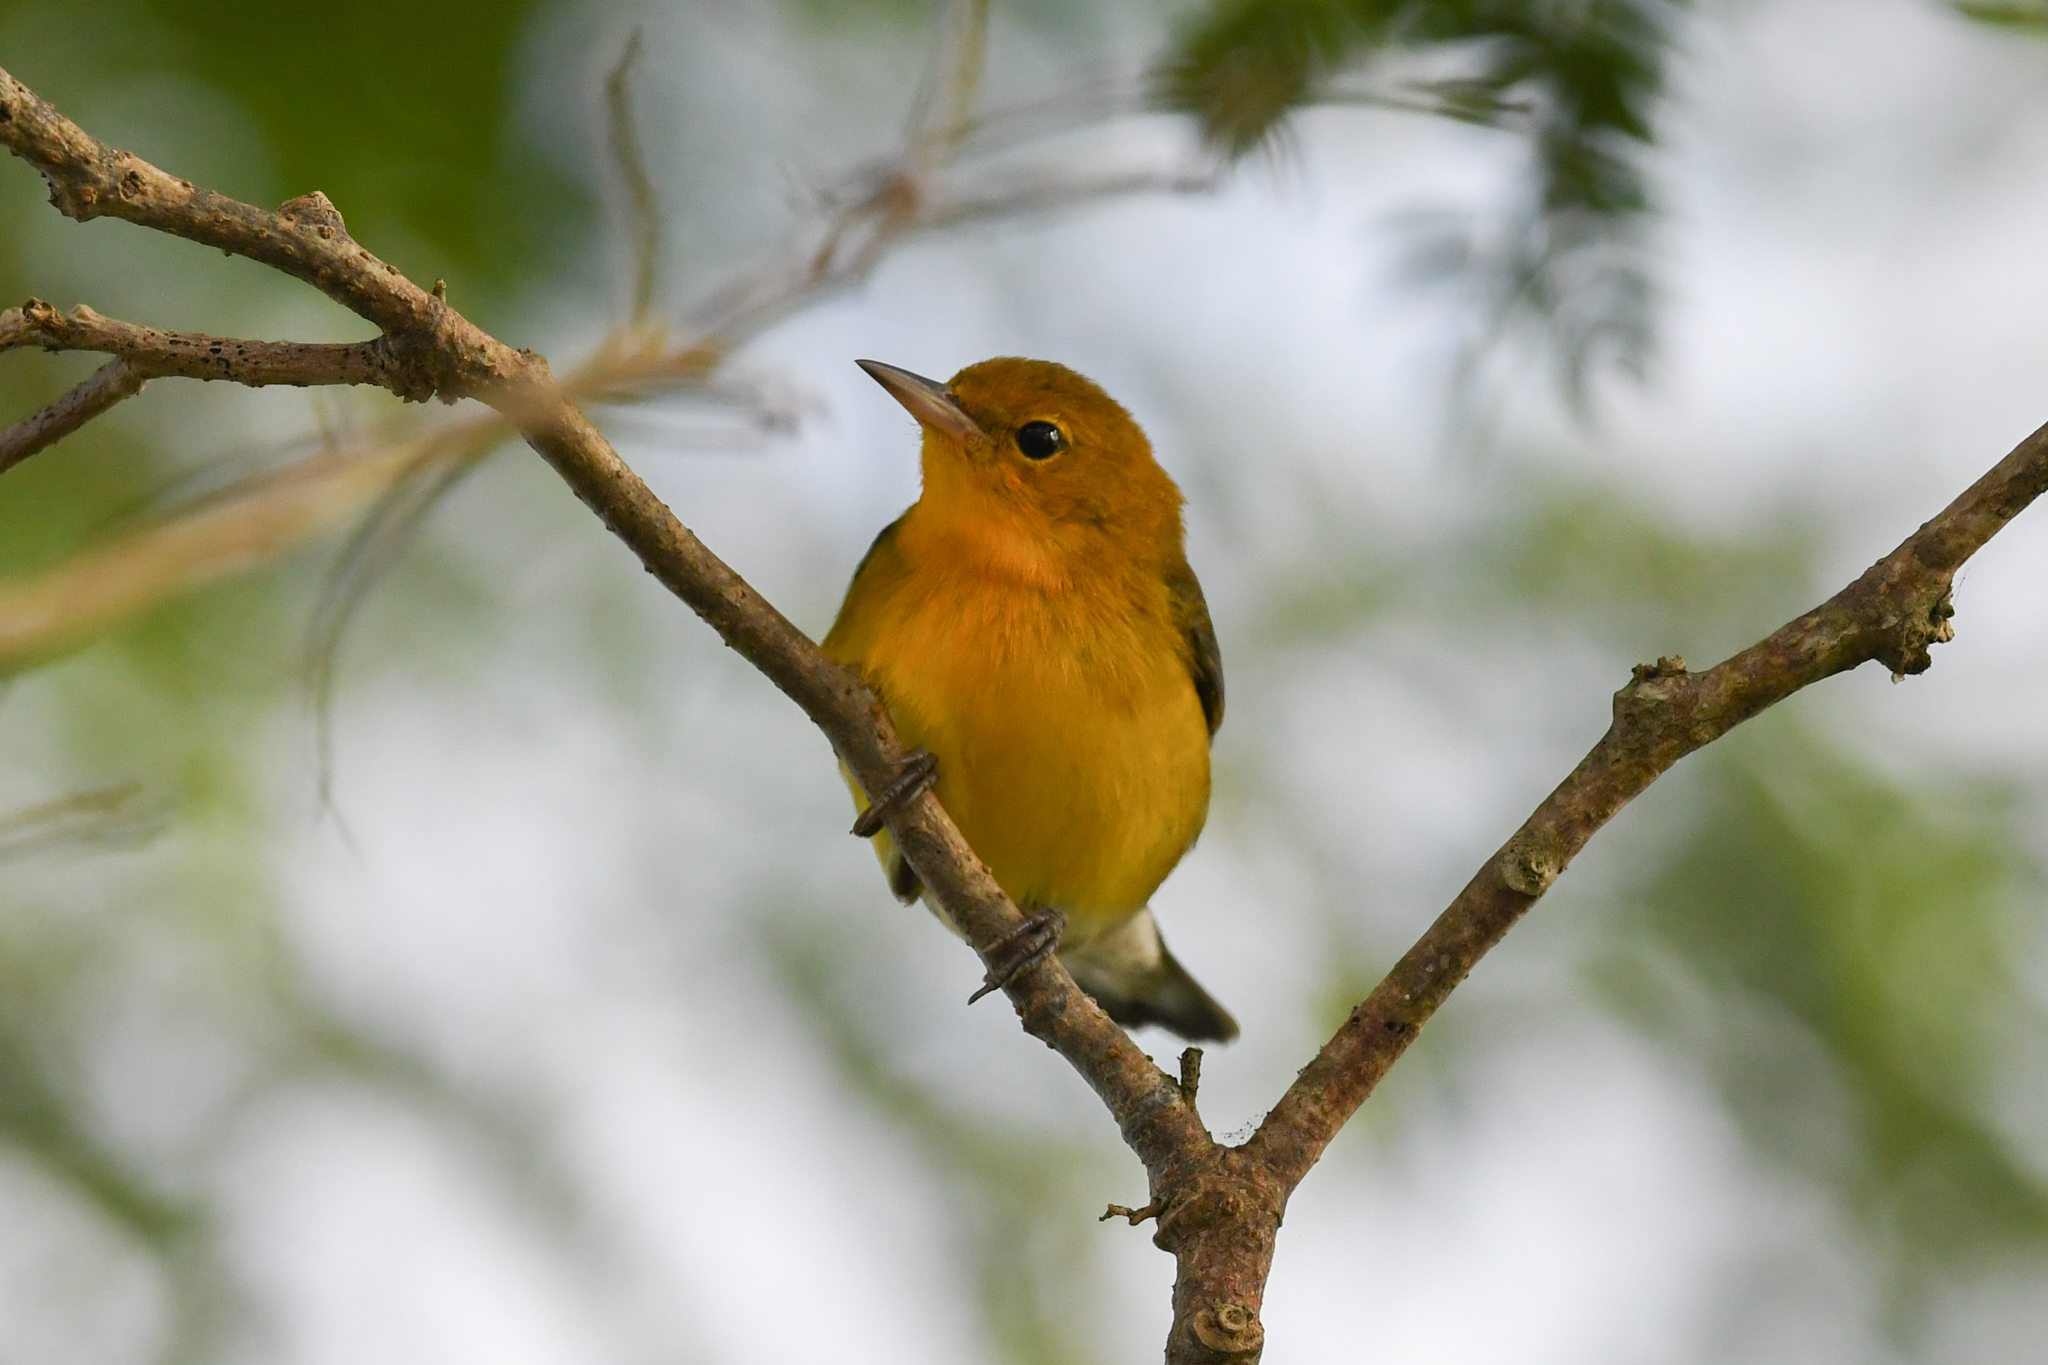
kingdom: Animalia
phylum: Chordata
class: Aves
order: Passeriformes
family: Parulidae
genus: Protonotaria
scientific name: Protonotaria citrea
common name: Prothonotary warbler
